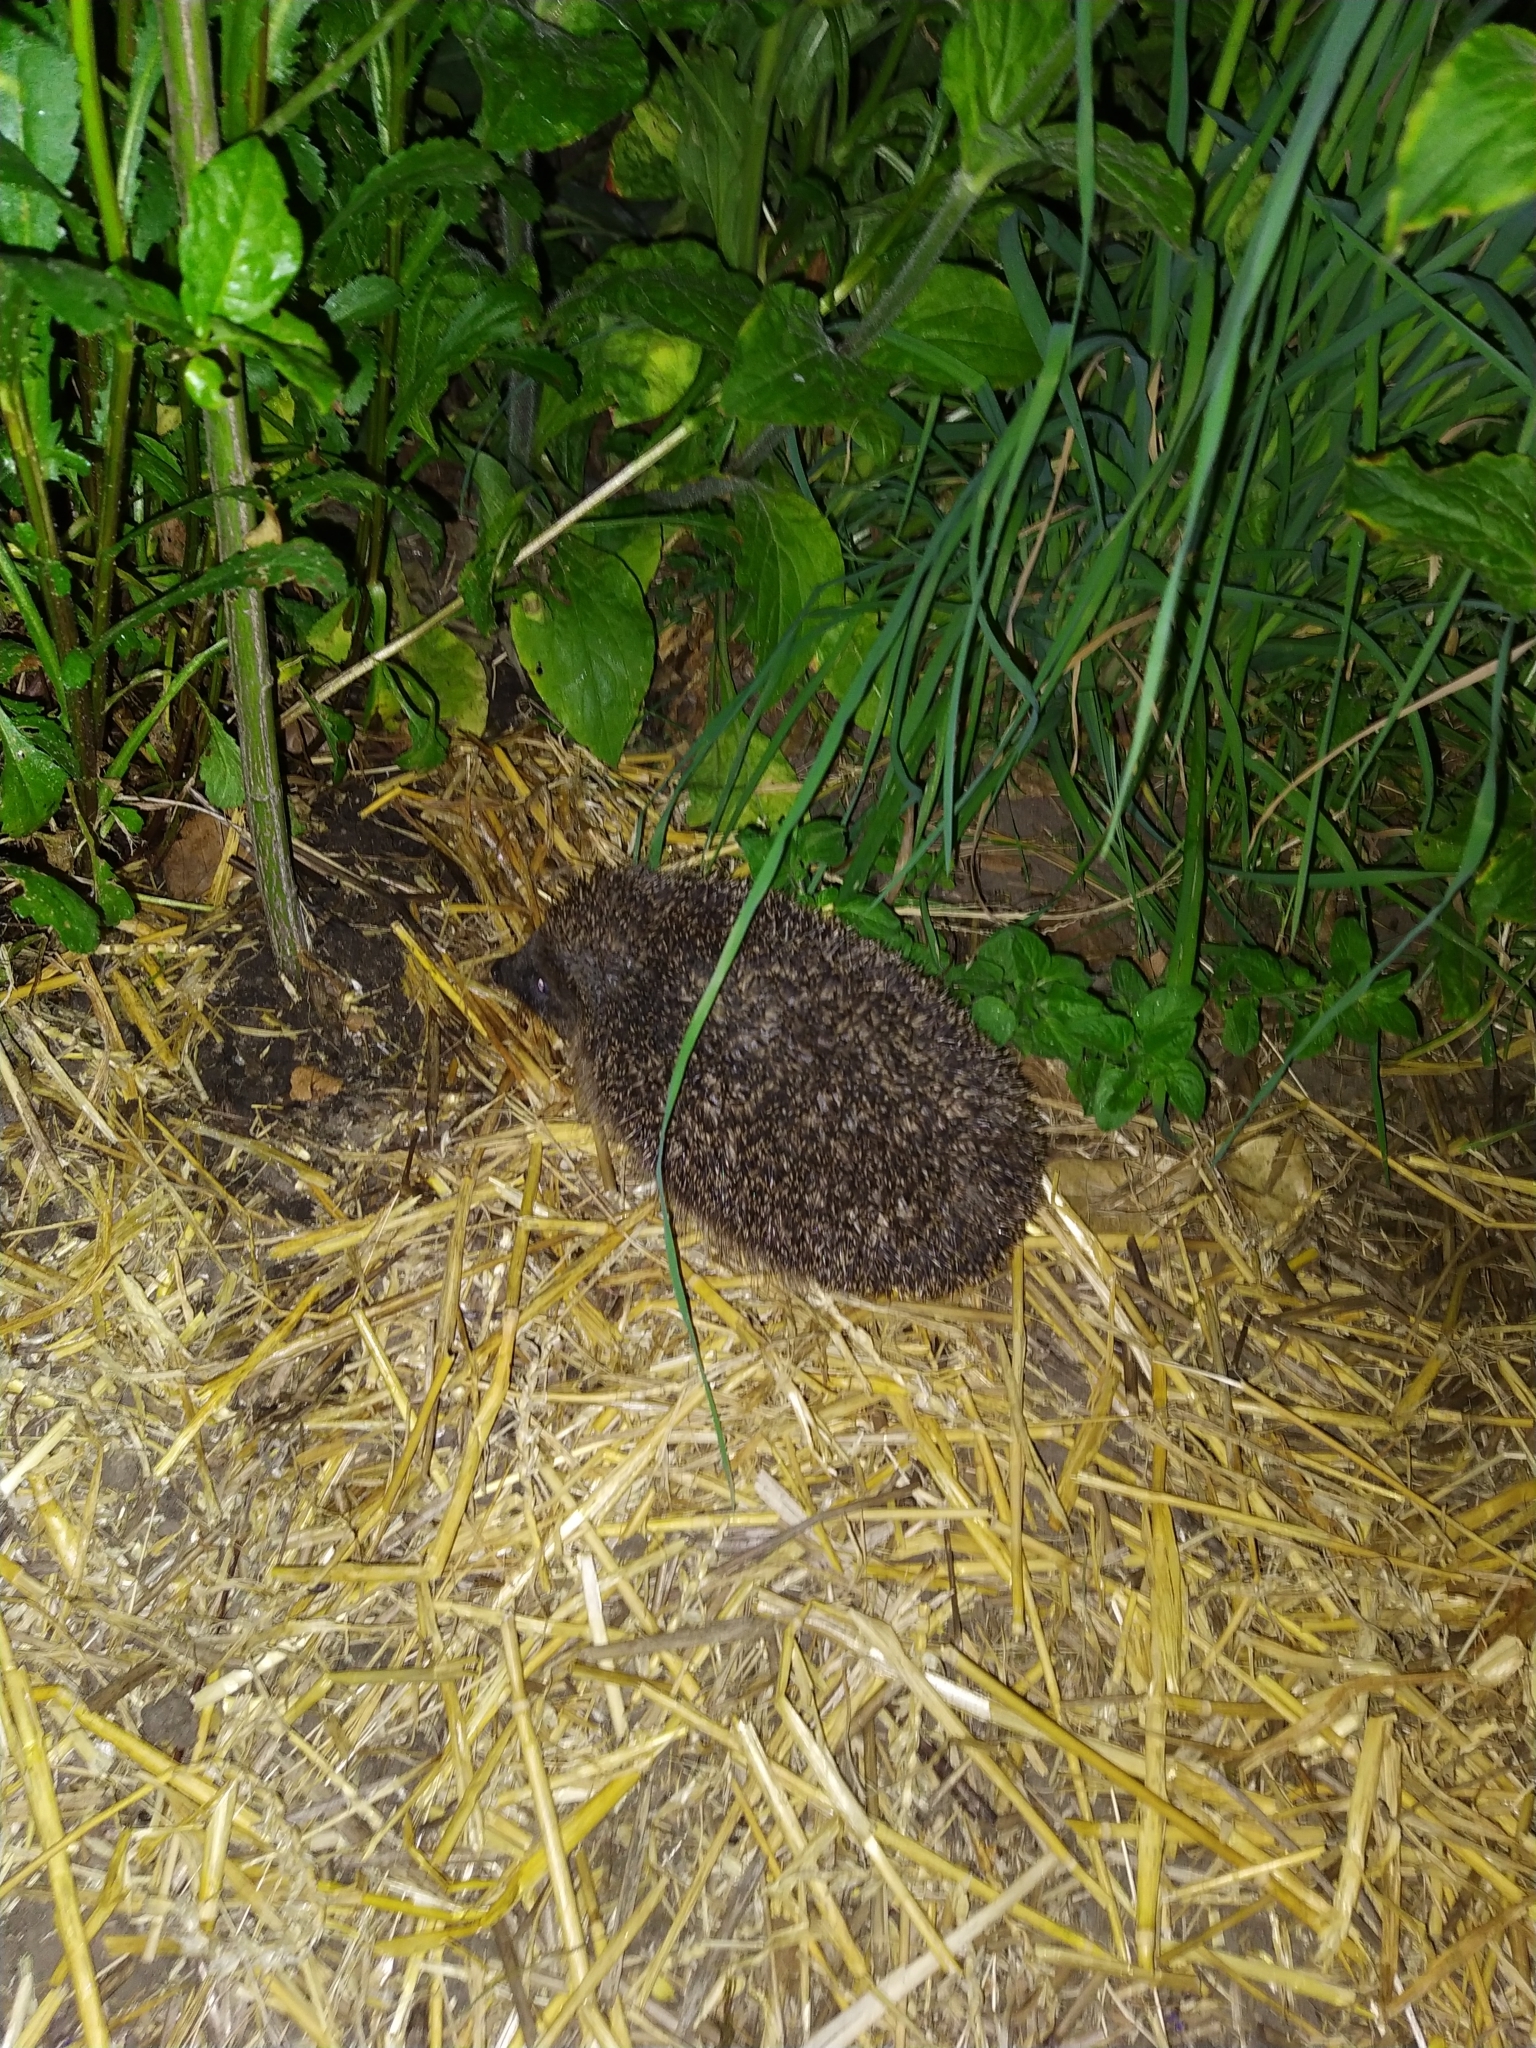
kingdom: Animalia
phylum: Chordata
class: Mammalia
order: Erinaceomorpha
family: Erinaceidae
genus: Erinaceus
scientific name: Erinaceus europaeus
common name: West european hedgehog
